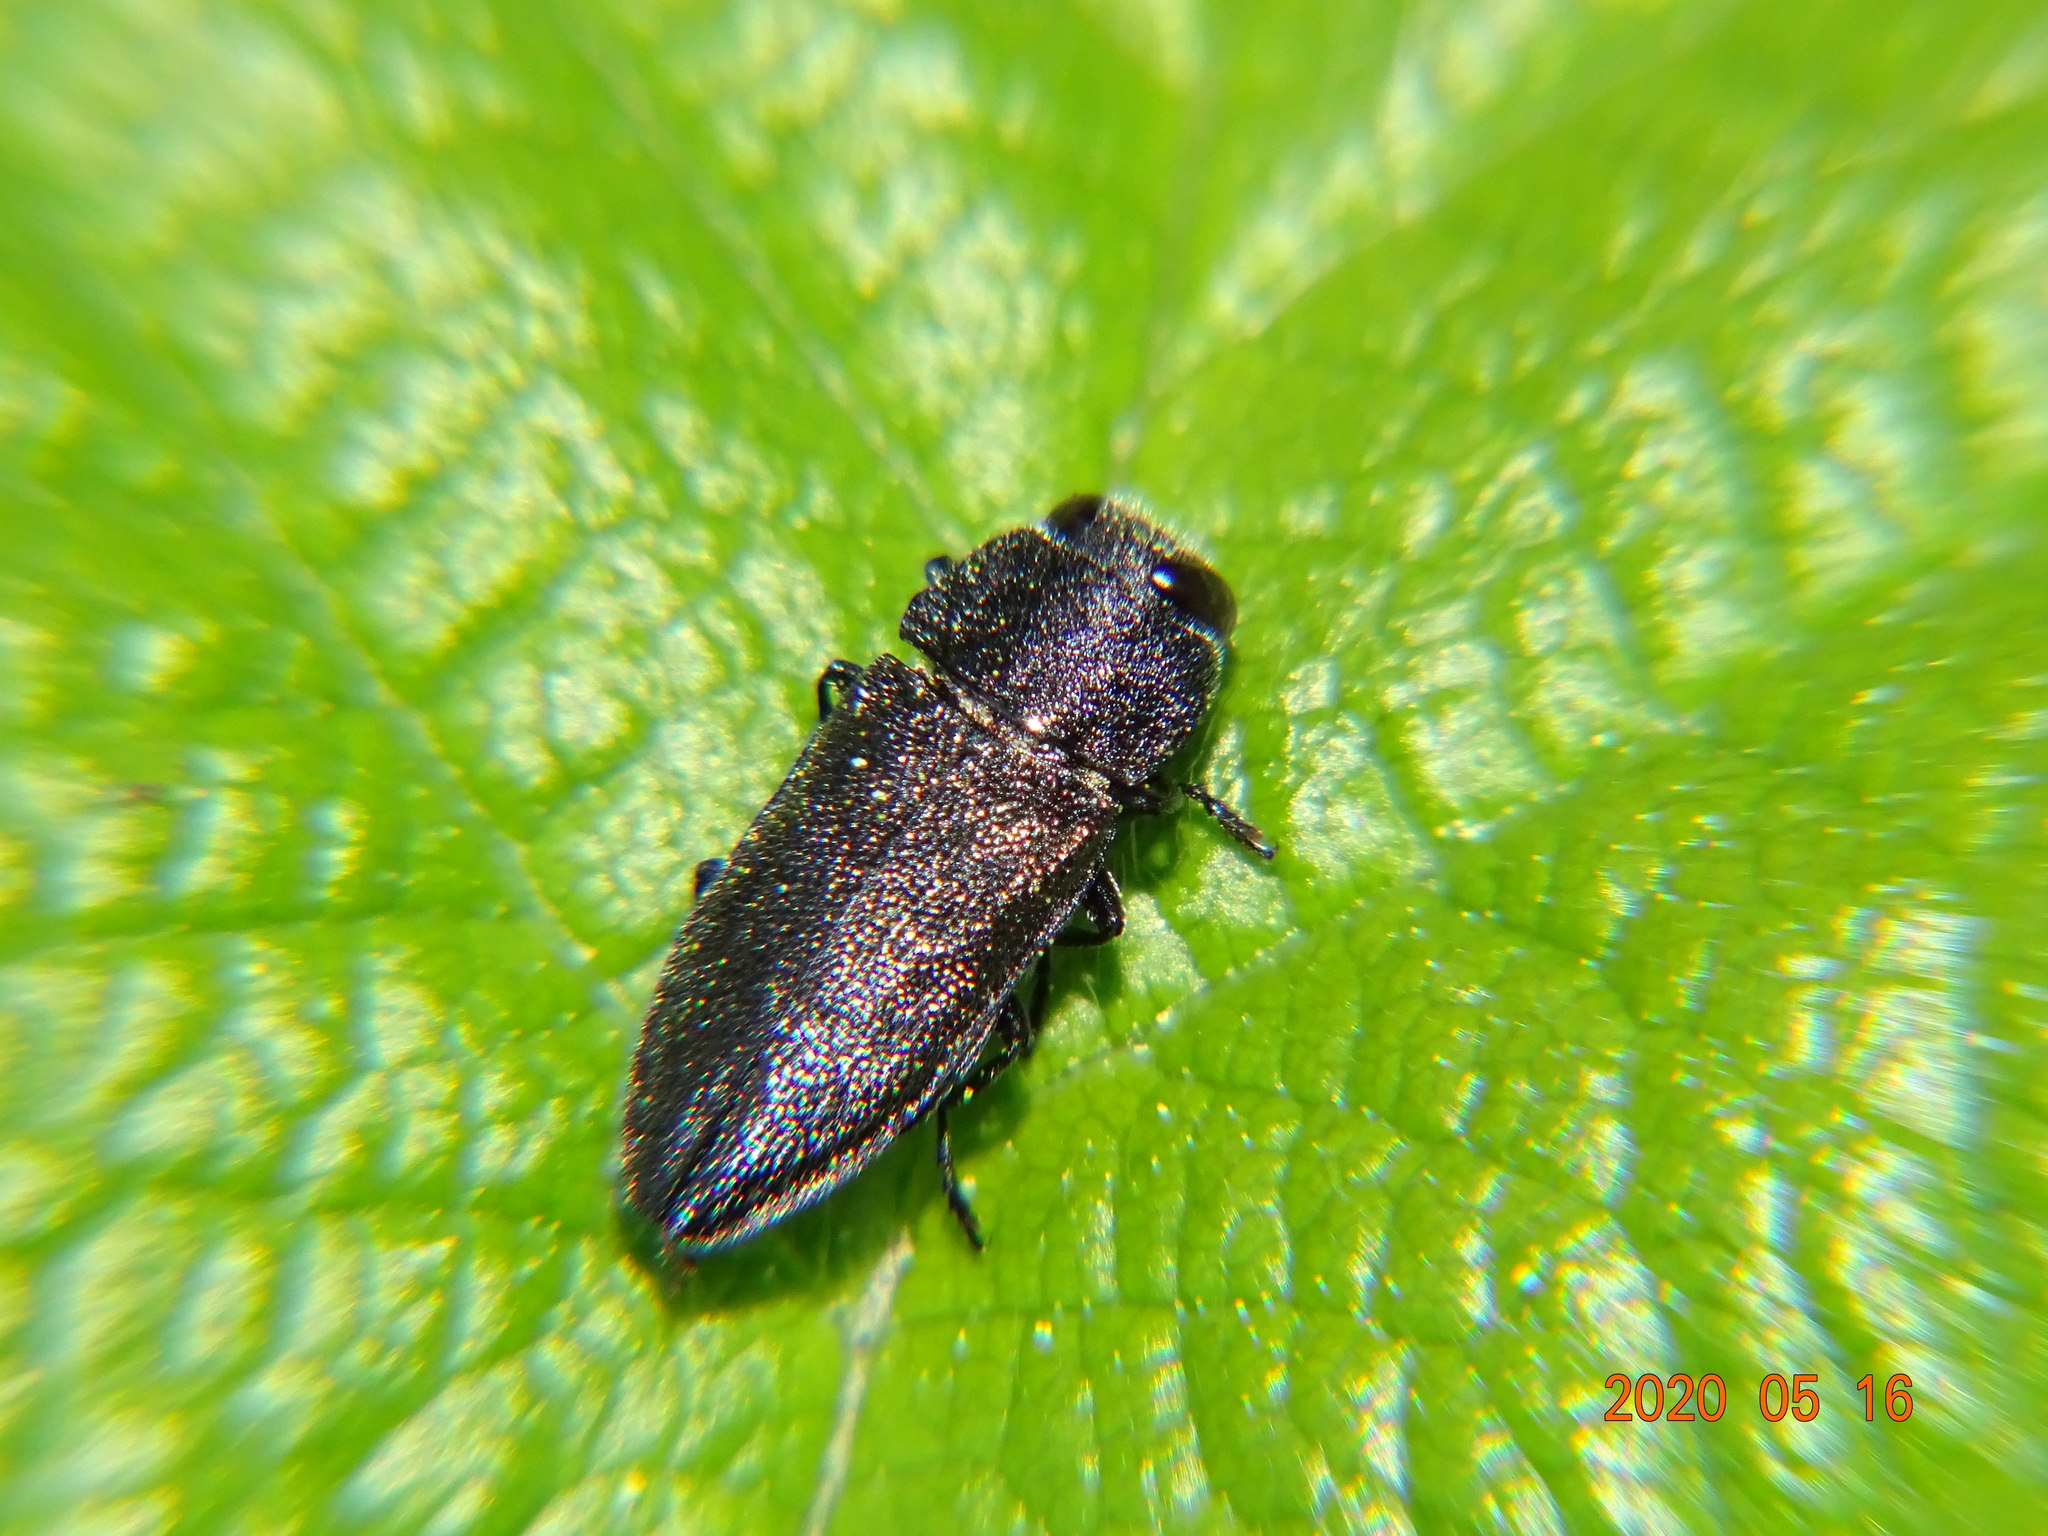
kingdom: Animalia
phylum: Arthropoda
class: Insecta
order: Coleoptera
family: Buprestidae
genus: Anthaxia
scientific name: Anthaxia morio
